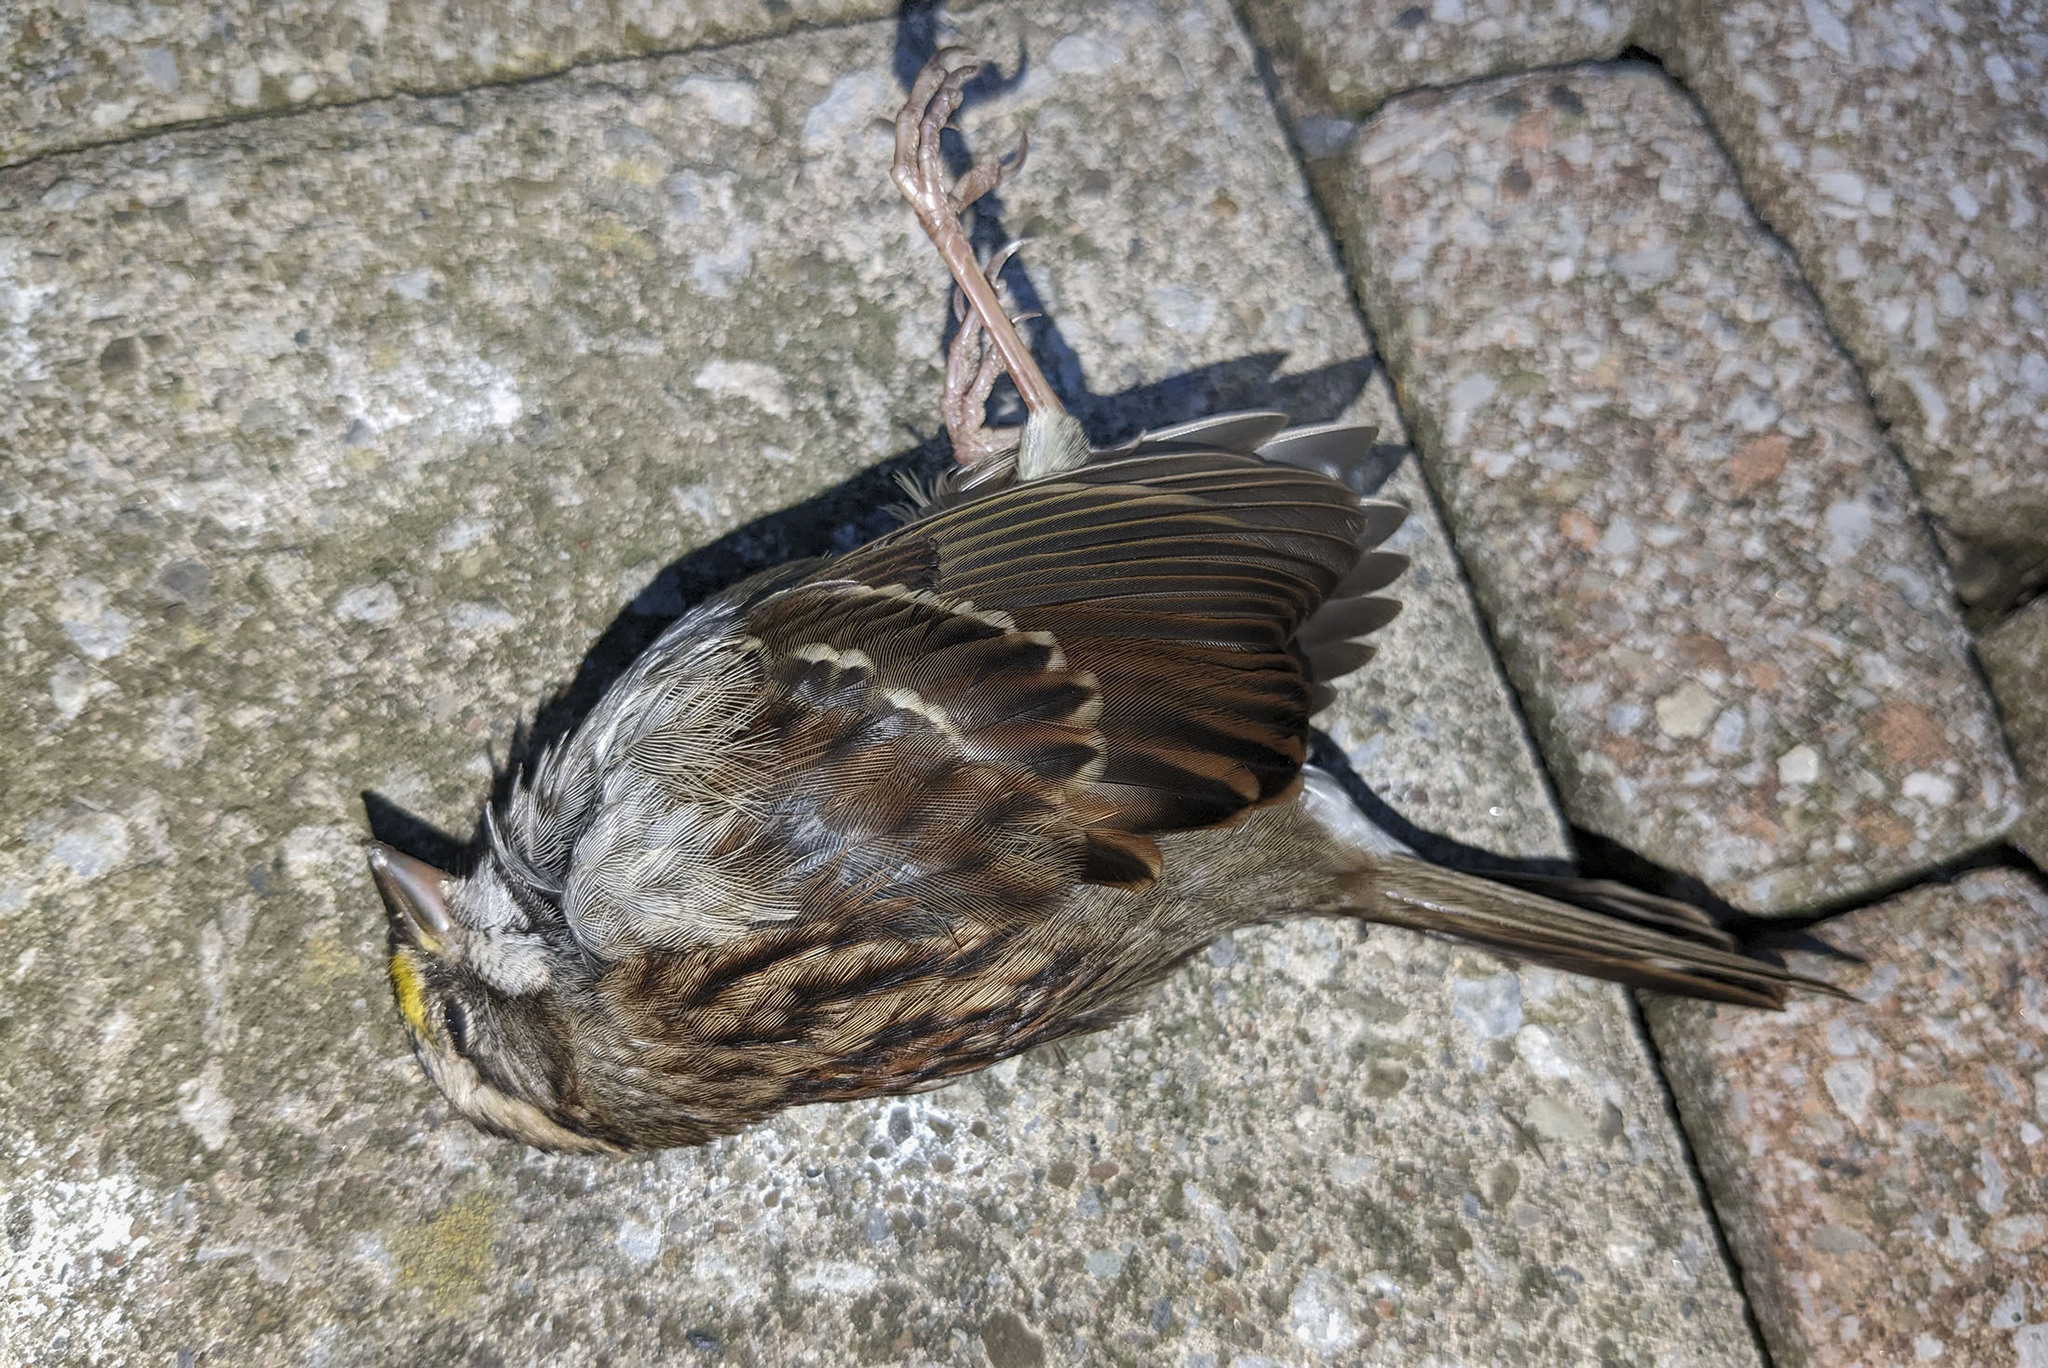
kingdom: Animalia
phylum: Chordata
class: Aves
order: Passeriformes
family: Passerellidae
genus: Zonotrichia
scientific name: Zonotrichia albicollis
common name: White-throated sparrow
